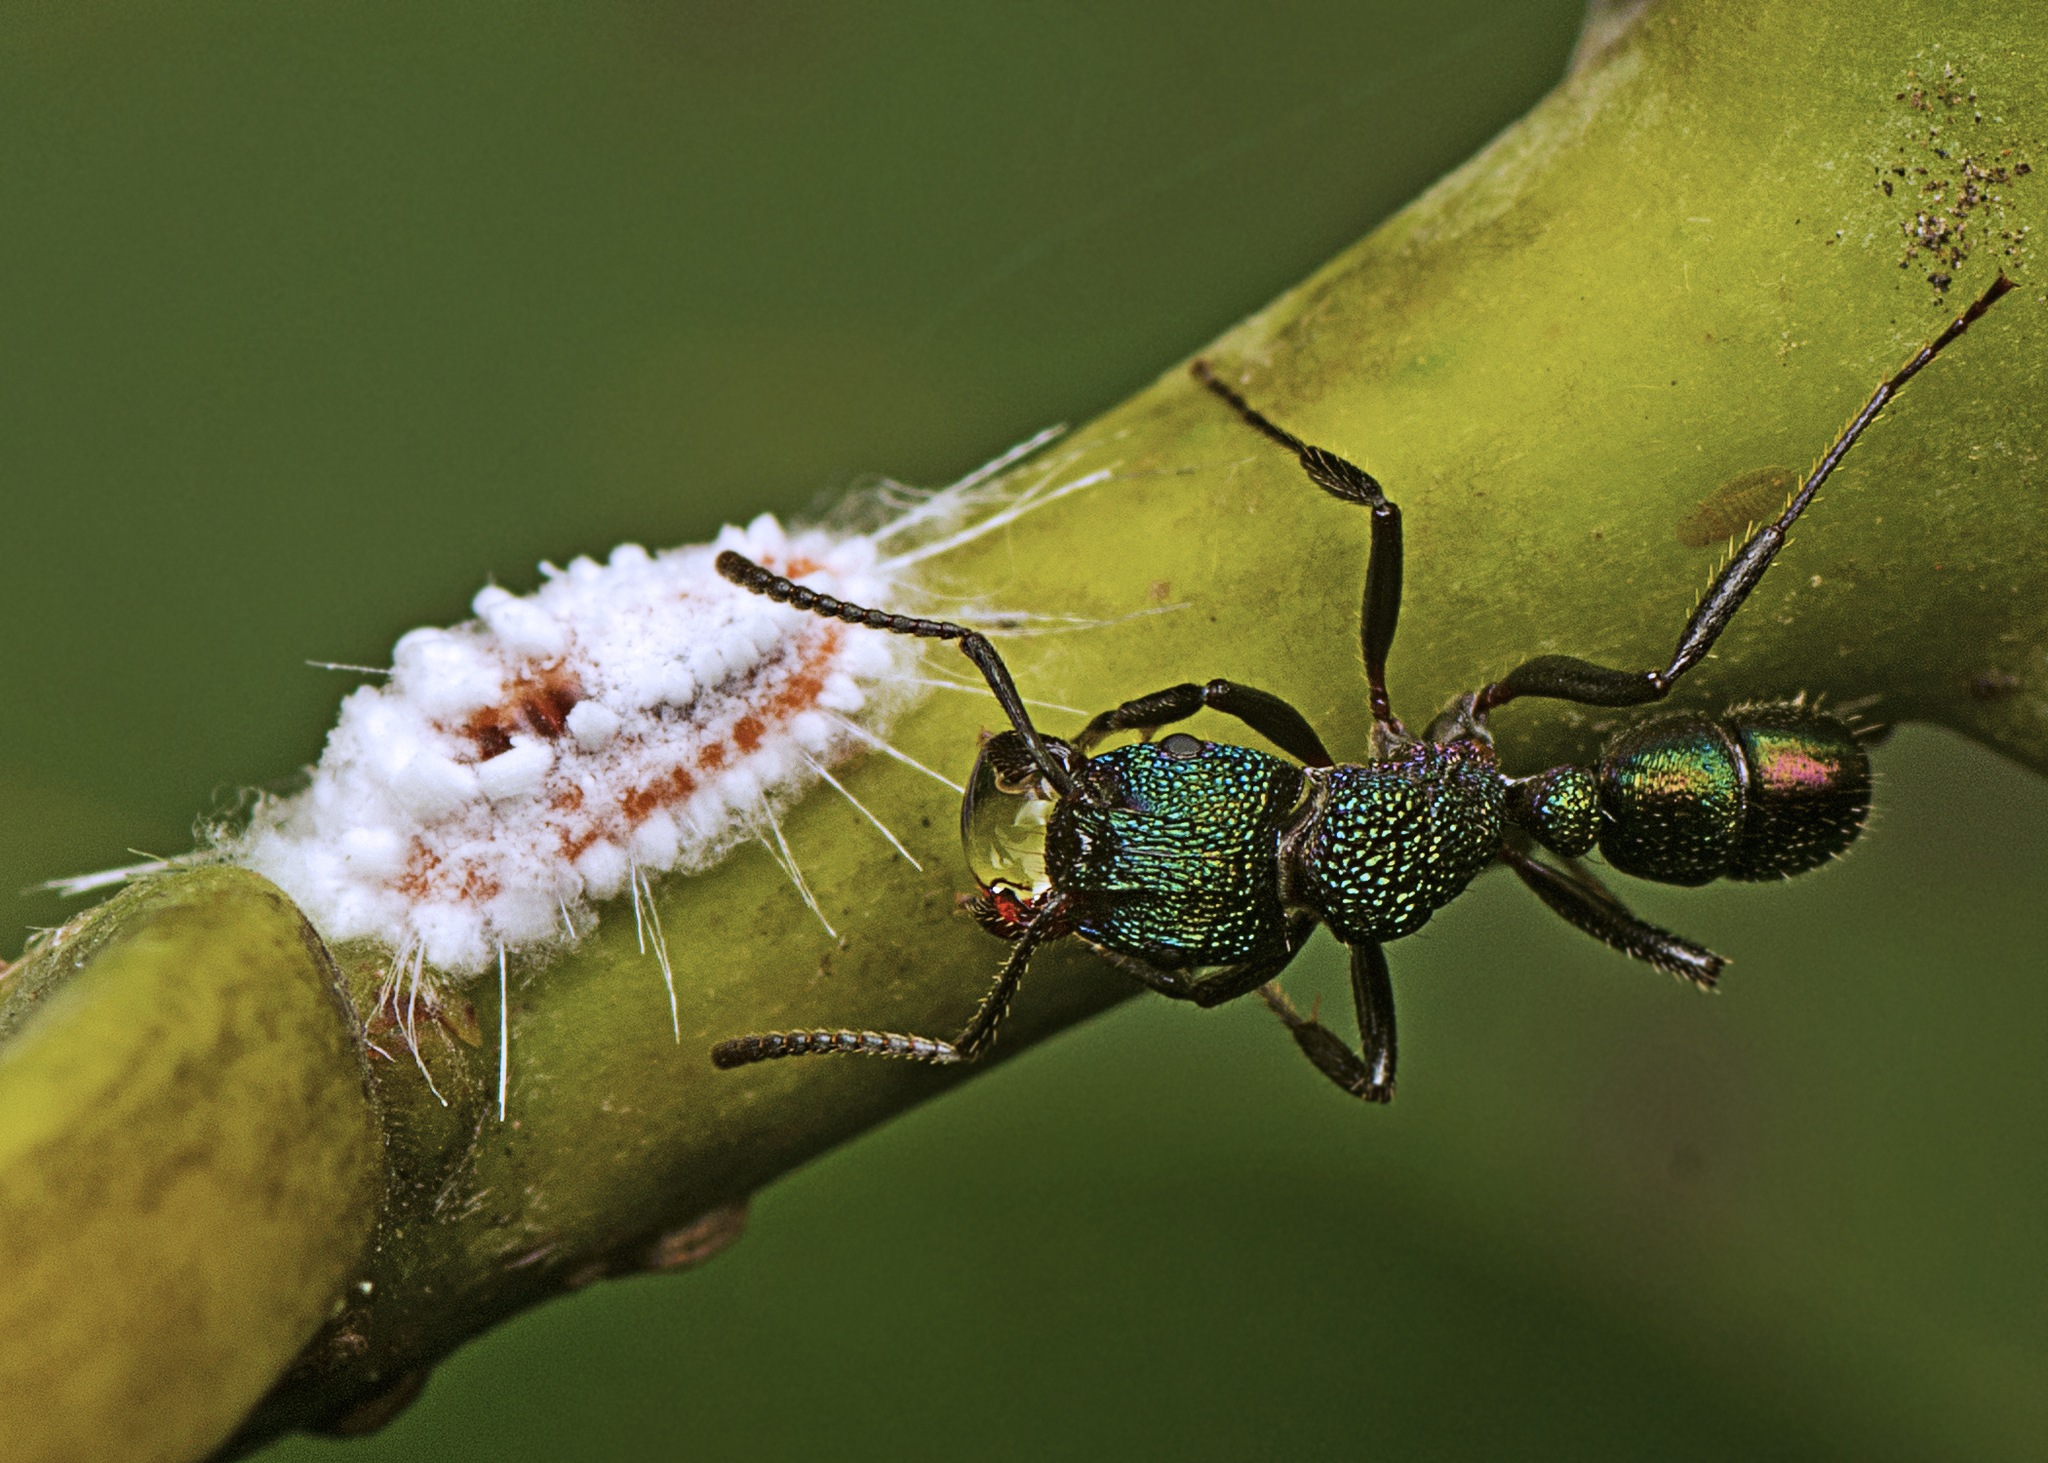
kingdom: Animalia
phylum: Arthropoda
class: Insecta
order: Hymenoptera
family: Formicidae
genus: Rhytidoponera
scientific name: Rhytidoponera metallica
